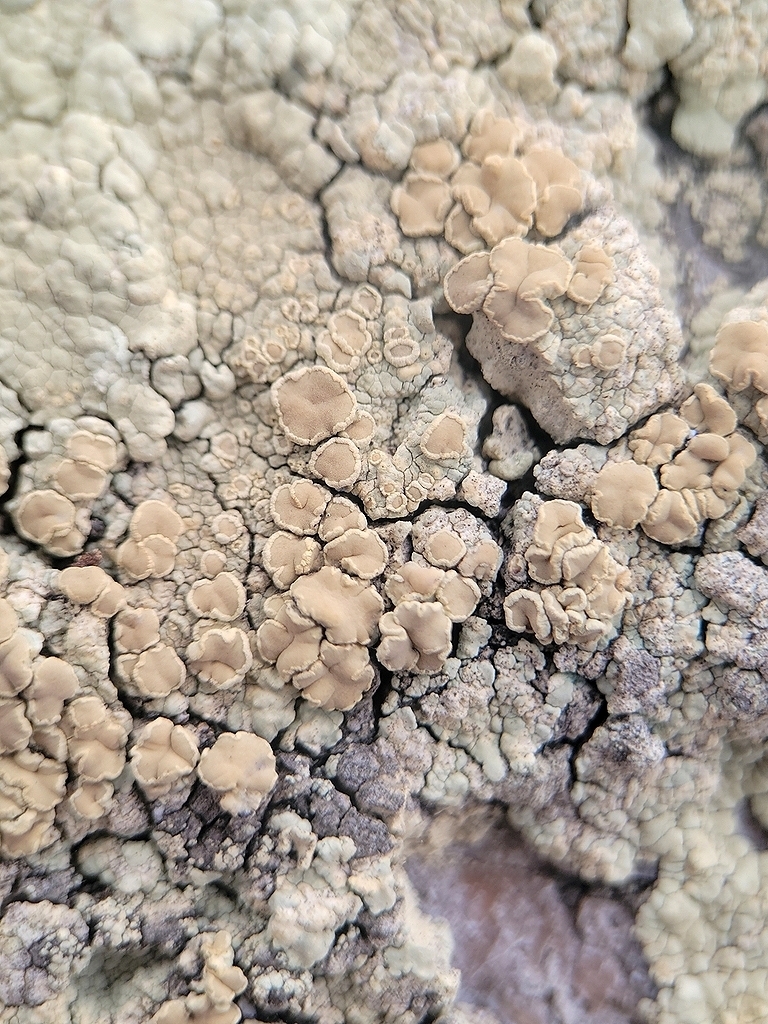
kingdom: Fungi
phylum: Ascomycota
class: Lecanoromycetes
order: Lecanorales
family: Lecanoraceae
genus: Protoparmeliopsis
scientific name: Protoparmeliopsis pinguis
